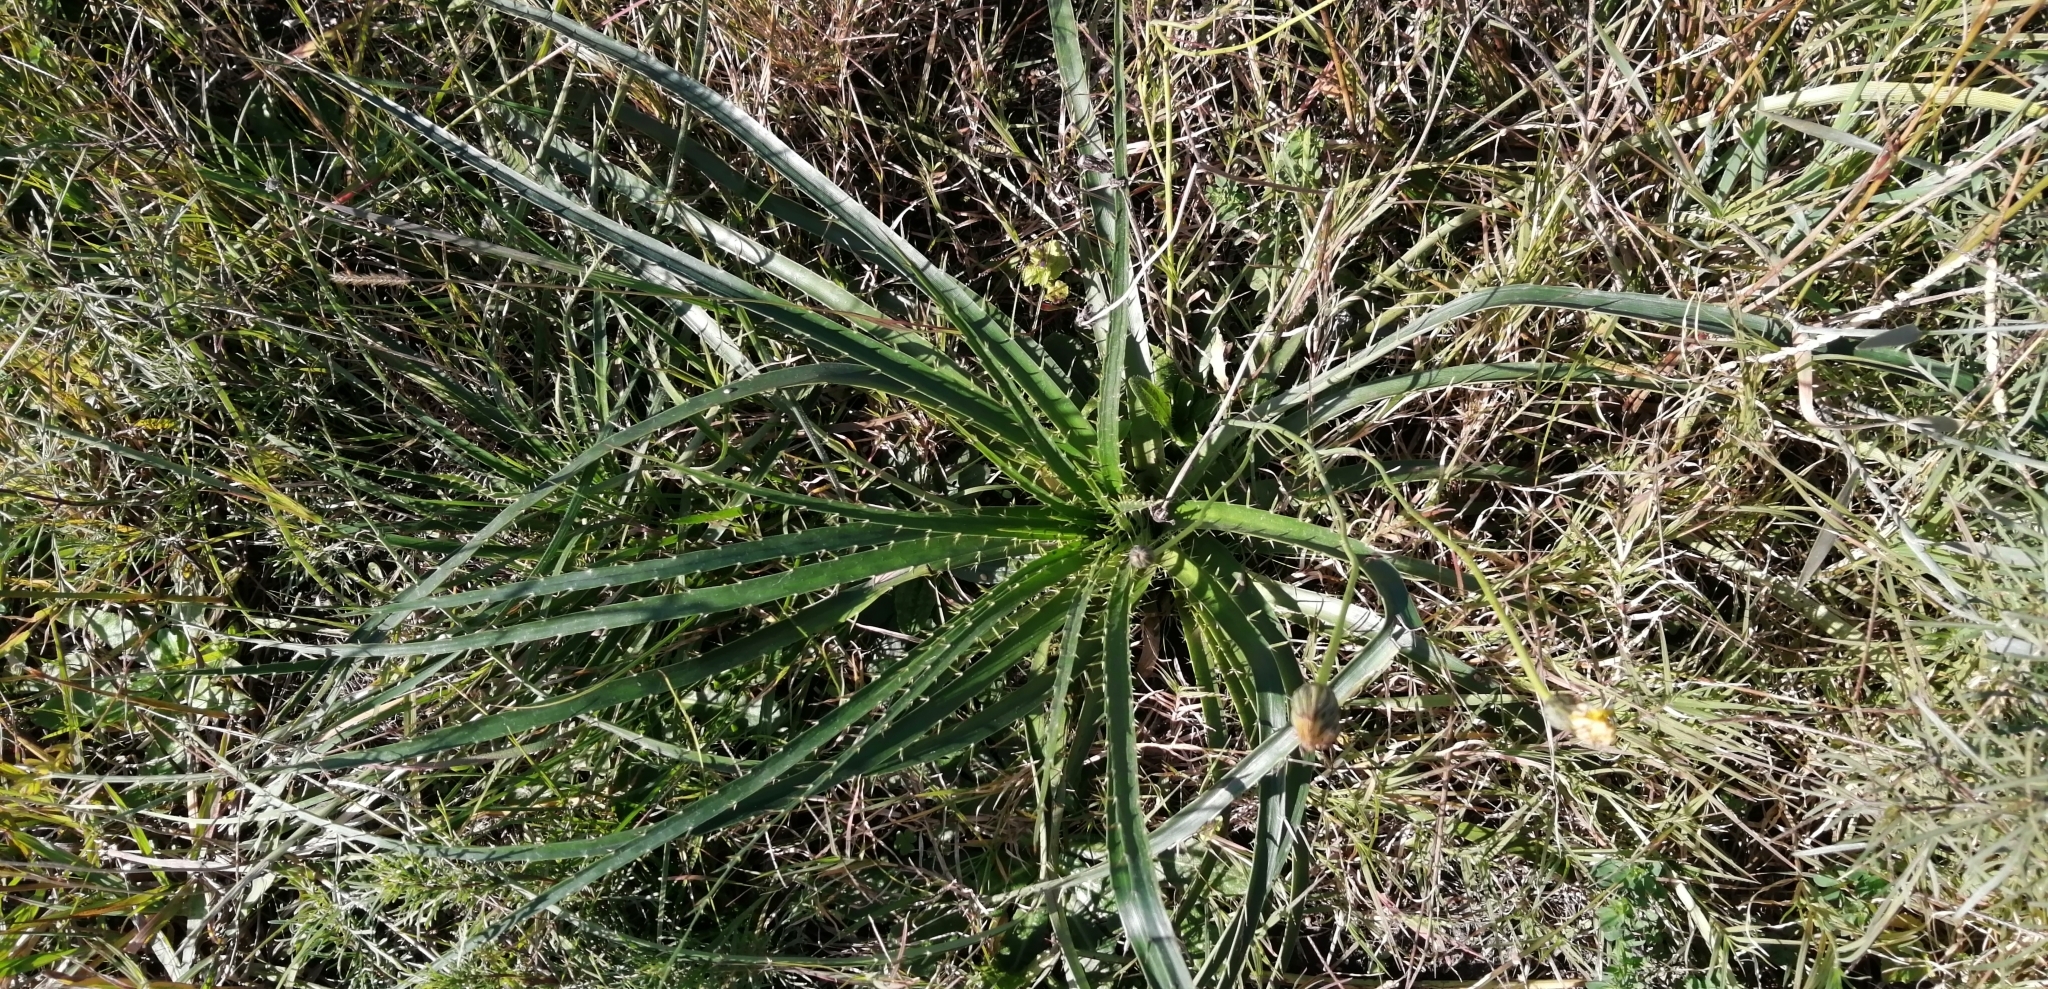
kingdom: Plantae
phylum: Tracheophyta
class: Magnoliopsida
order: Apiales
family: Apiaceae
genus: Eryngium
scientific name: Eryngium horridum
